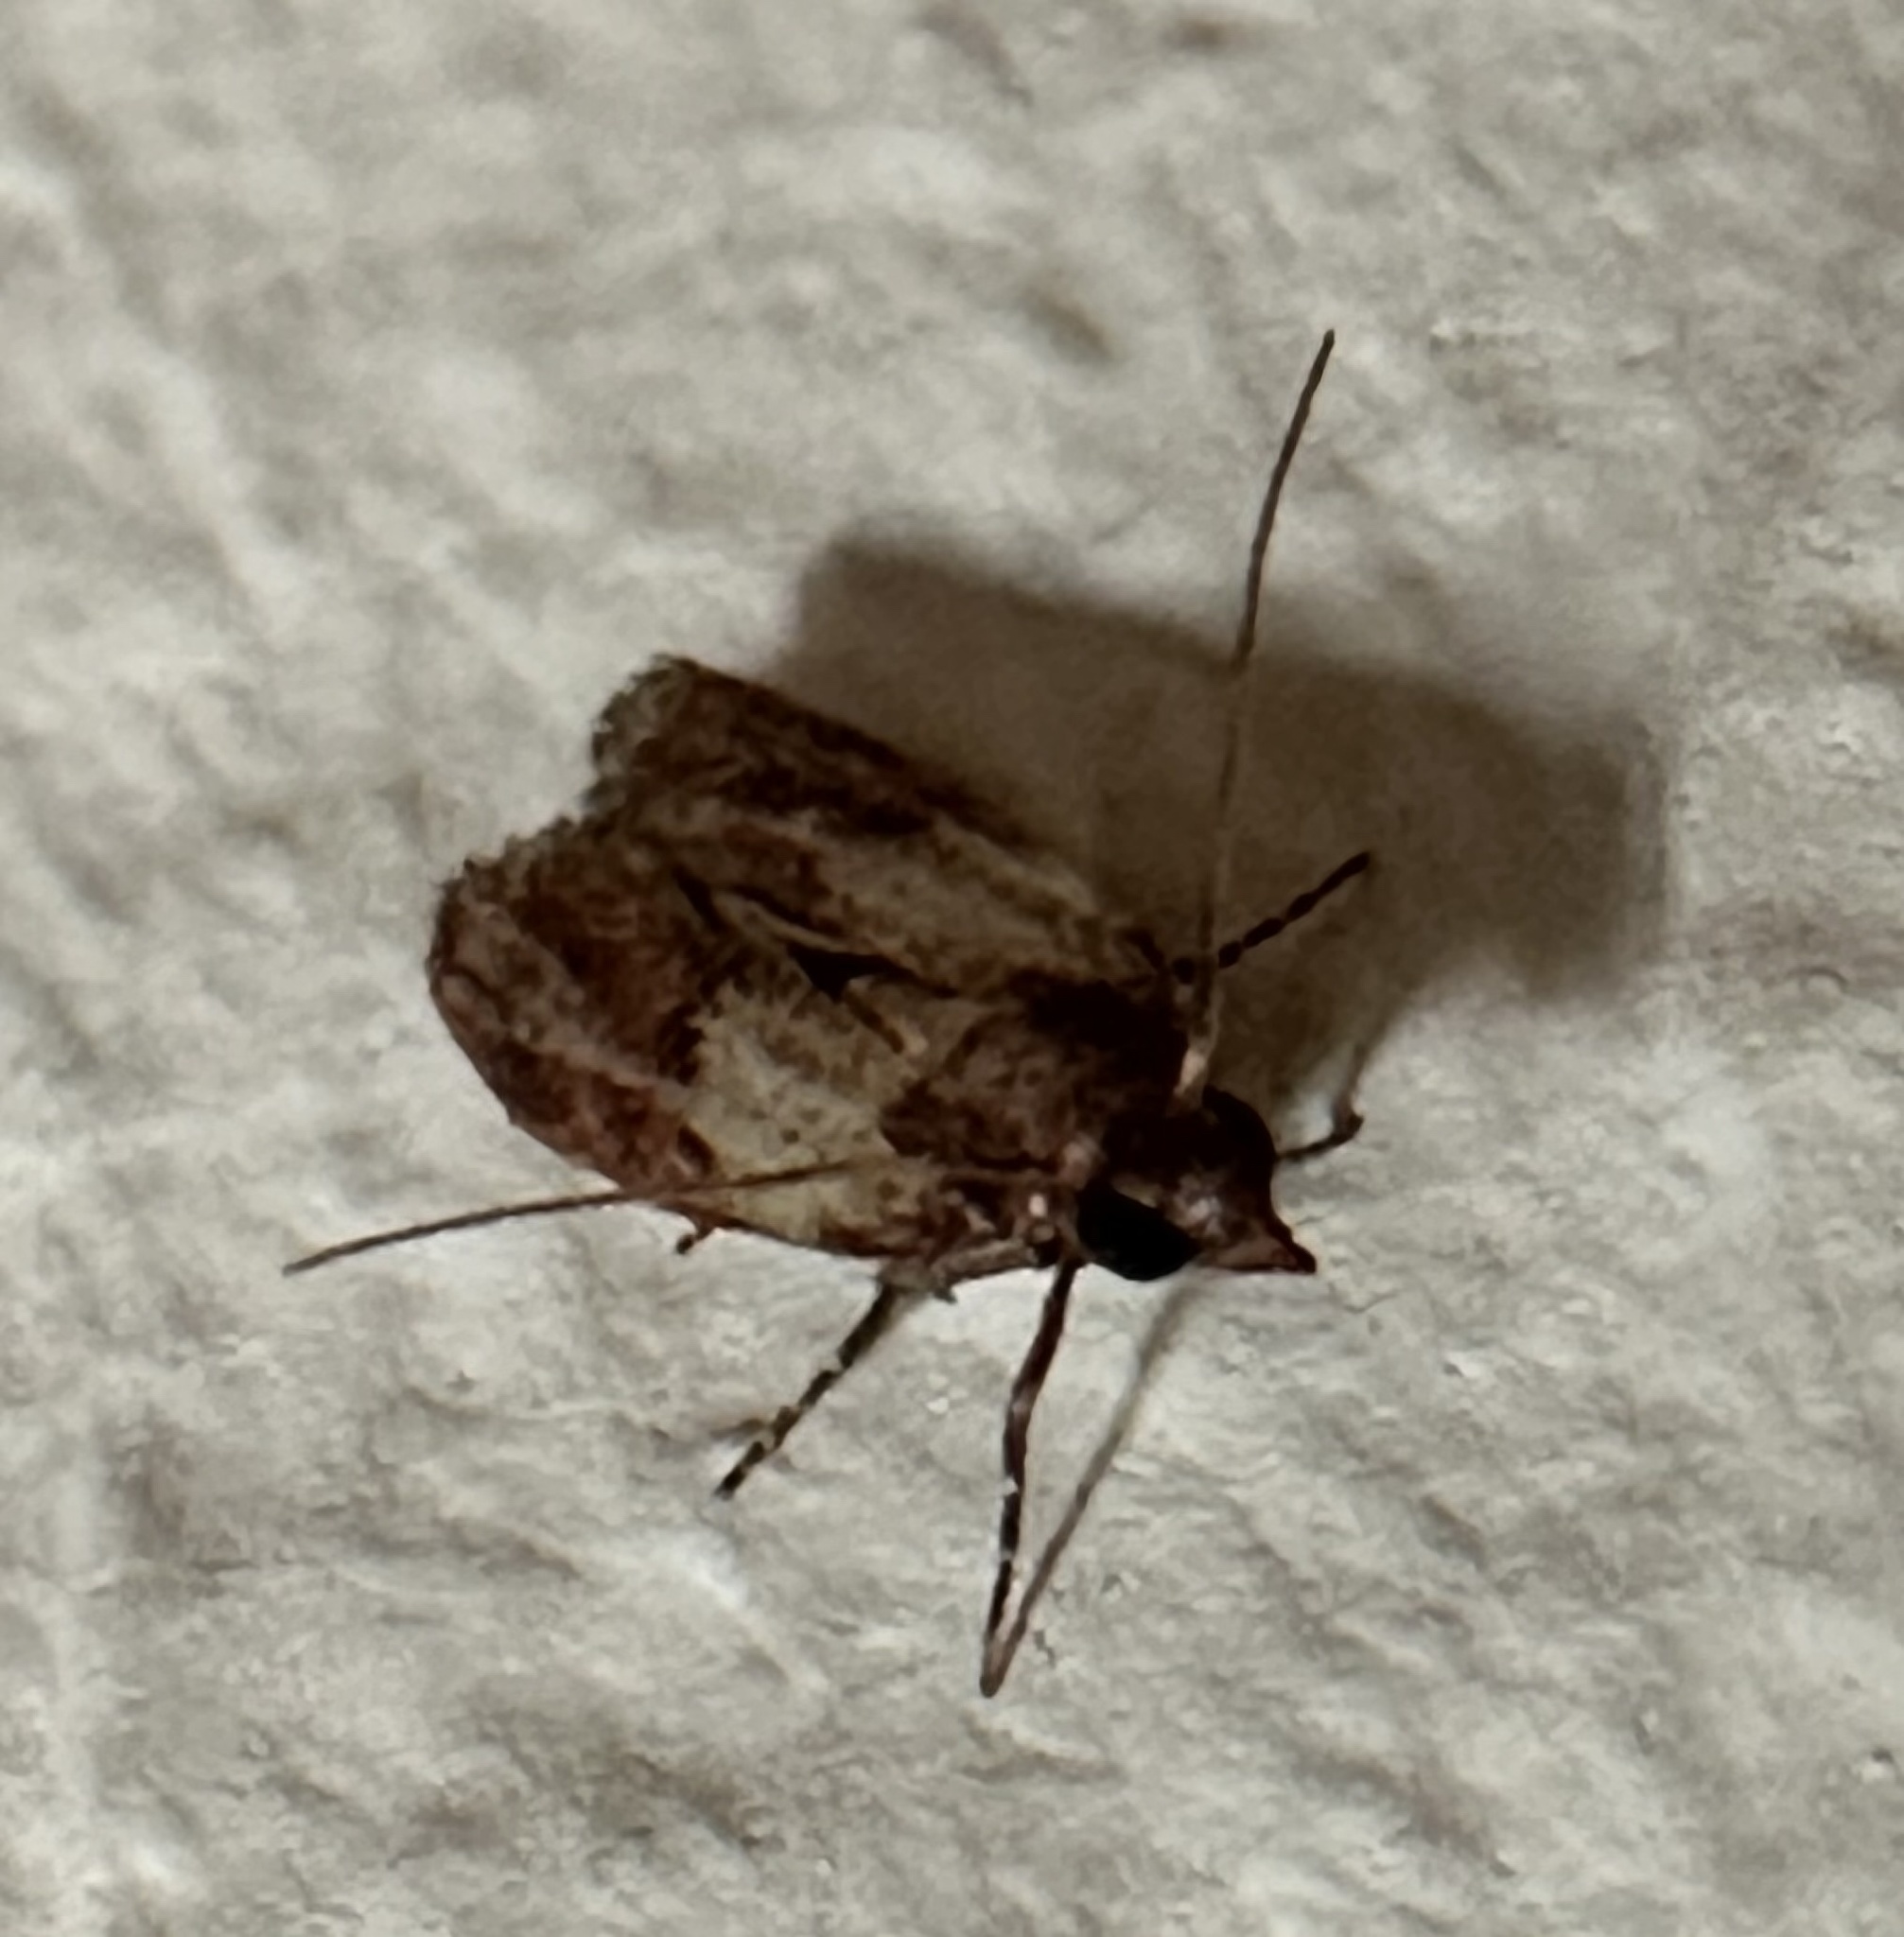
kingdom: Animalia
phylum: Arthropoda
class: Insecta
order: Lepidoptera
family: Pyralidae
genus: Plodia
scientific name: Plodia interpunctella
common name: Indian meal moth
